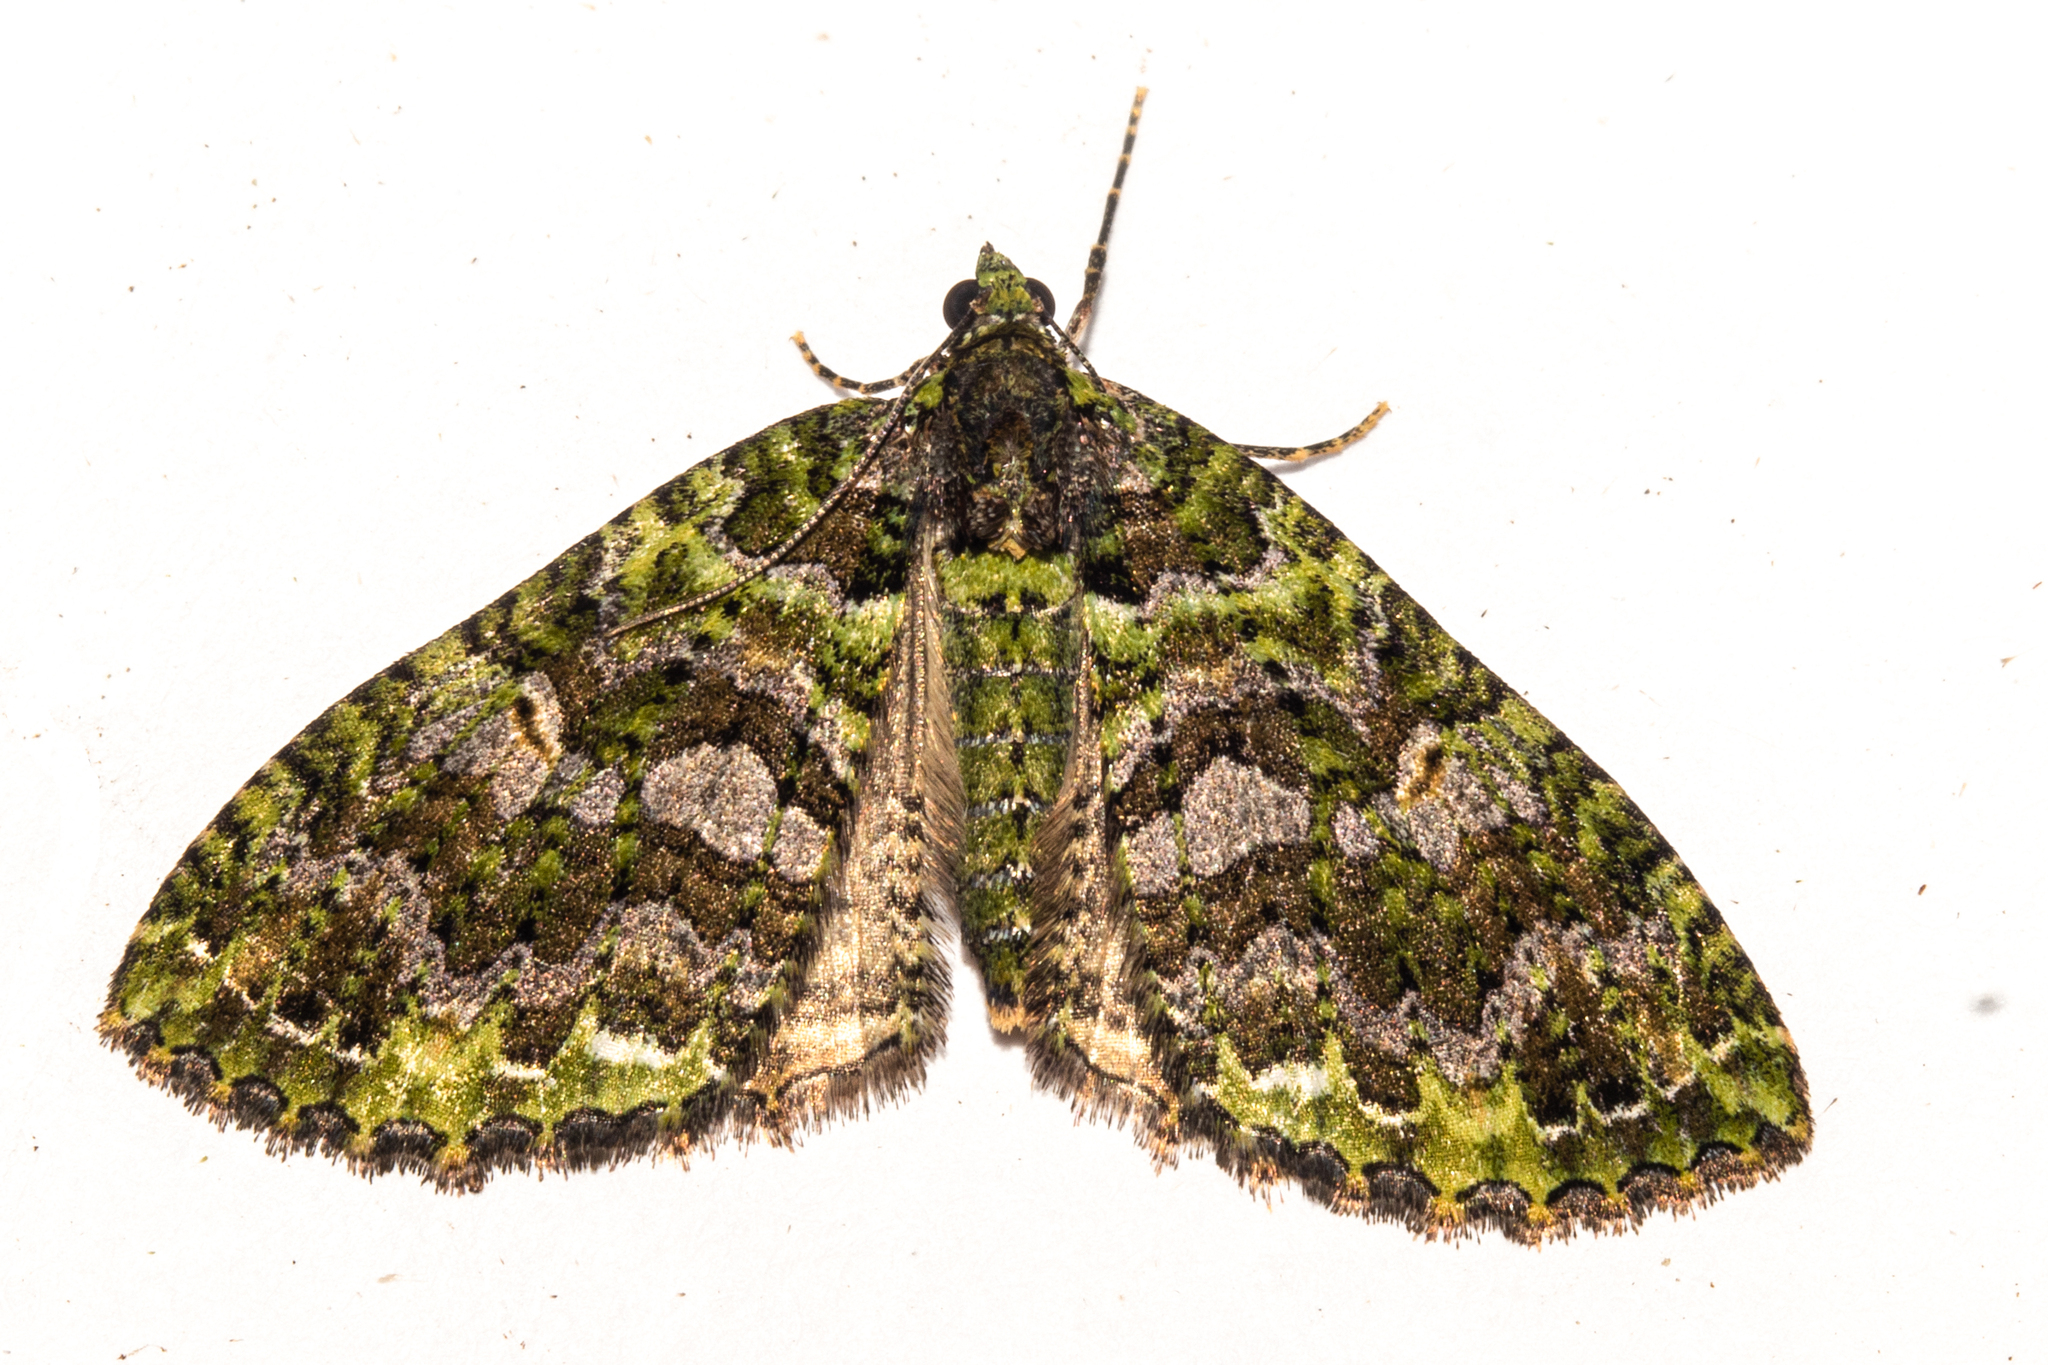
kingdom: Animalia
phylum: Arthropoda
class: Insecta
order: Lepidoptera
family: Geometridae
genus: Austrocidaria
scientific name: Austrocidaria similata
